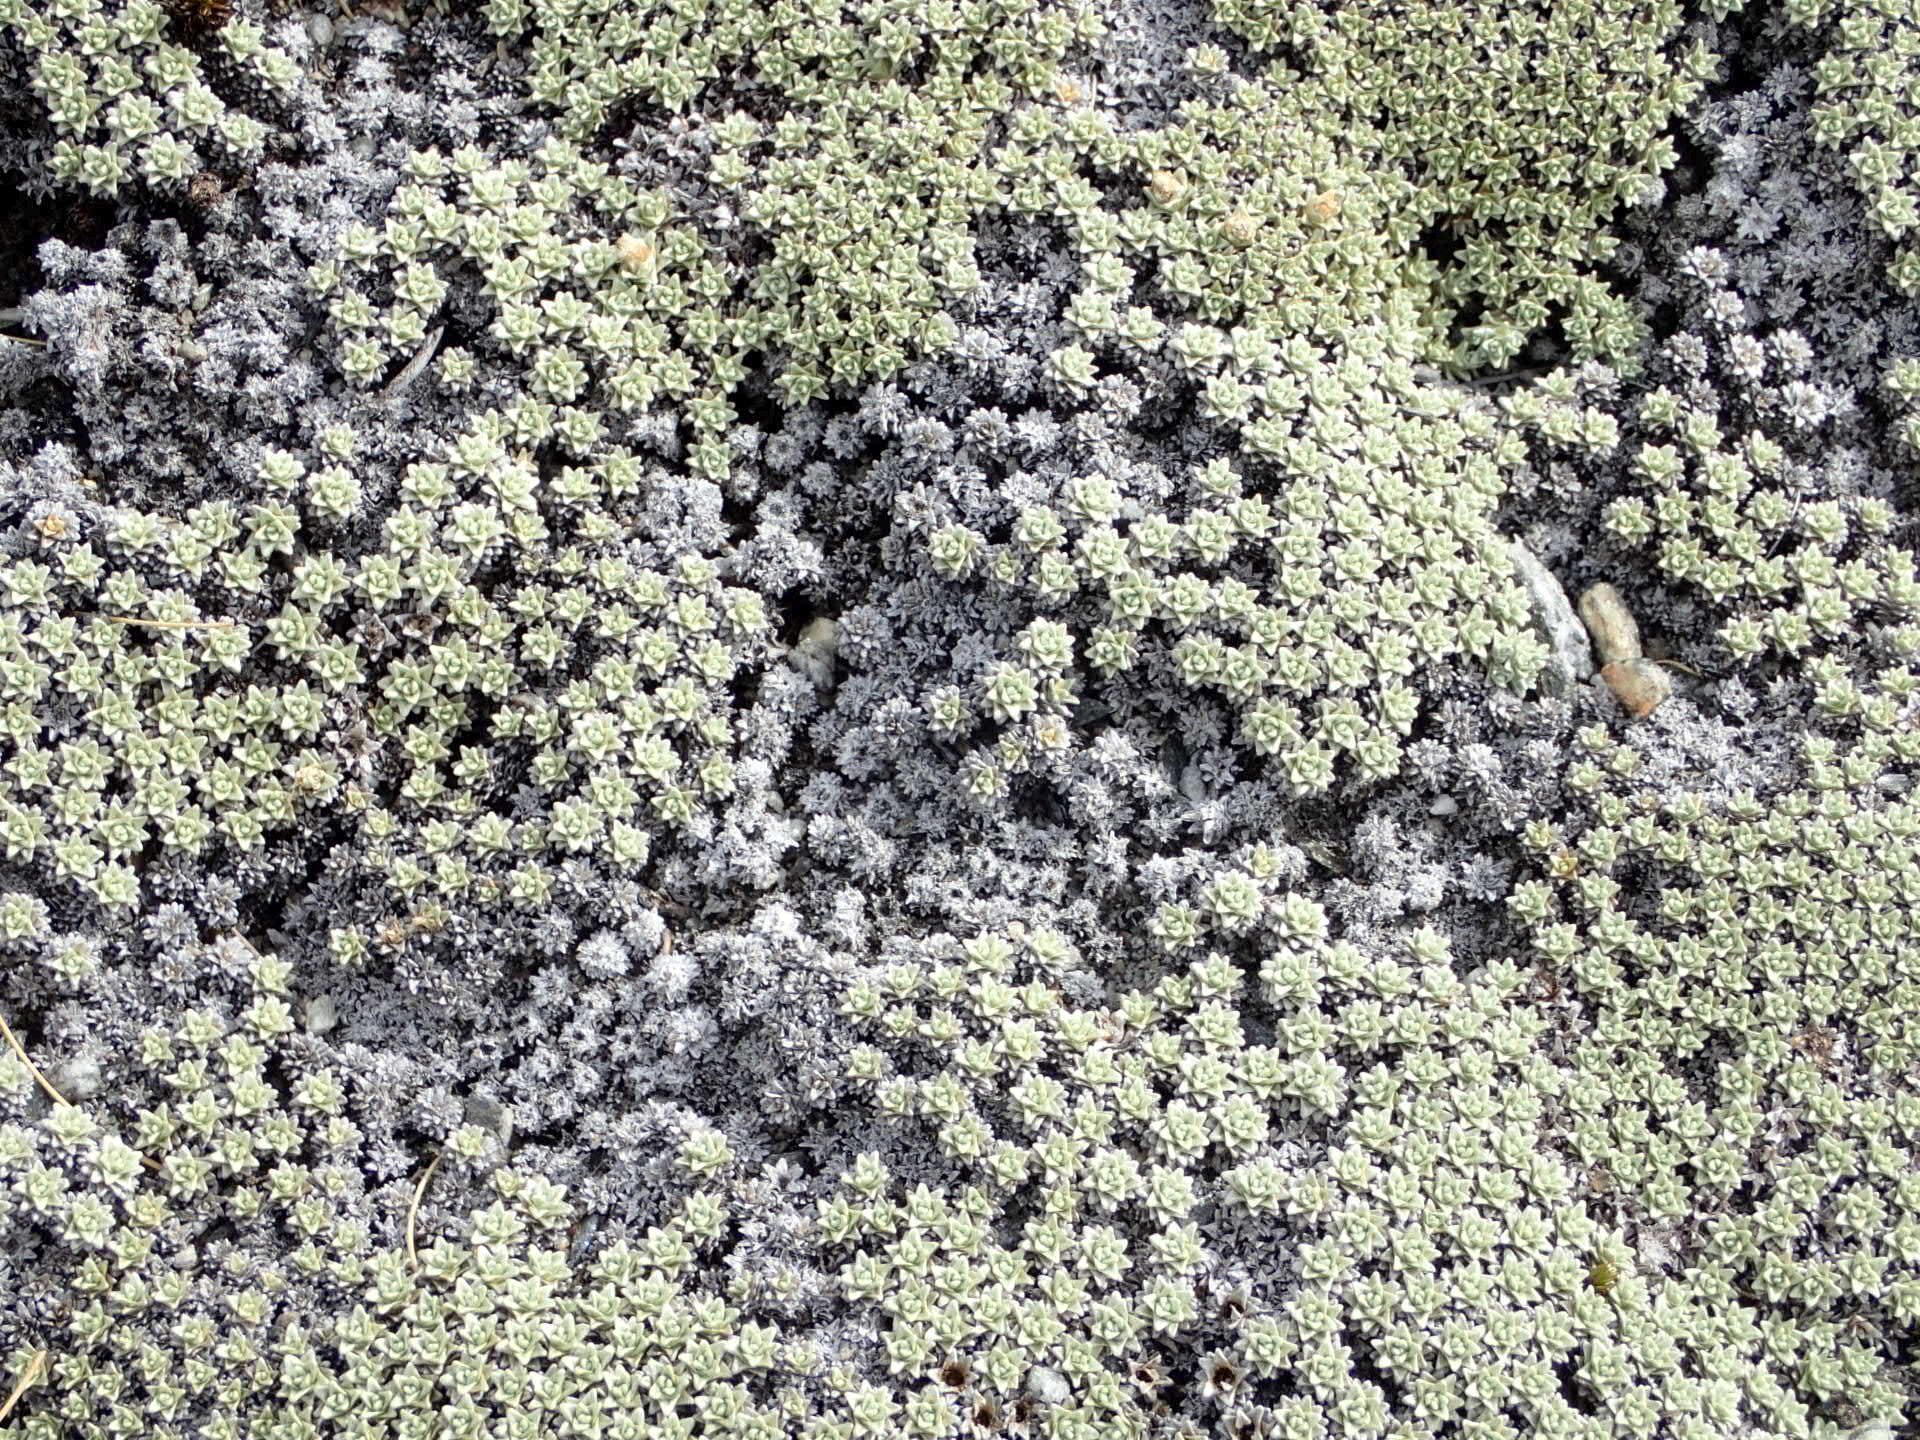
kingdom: Plantae
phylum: Tracheophyta
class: Magnoliopsida
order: Asterales
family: Asteraceae
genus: Raoulia
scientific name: Raoulia hectorii
